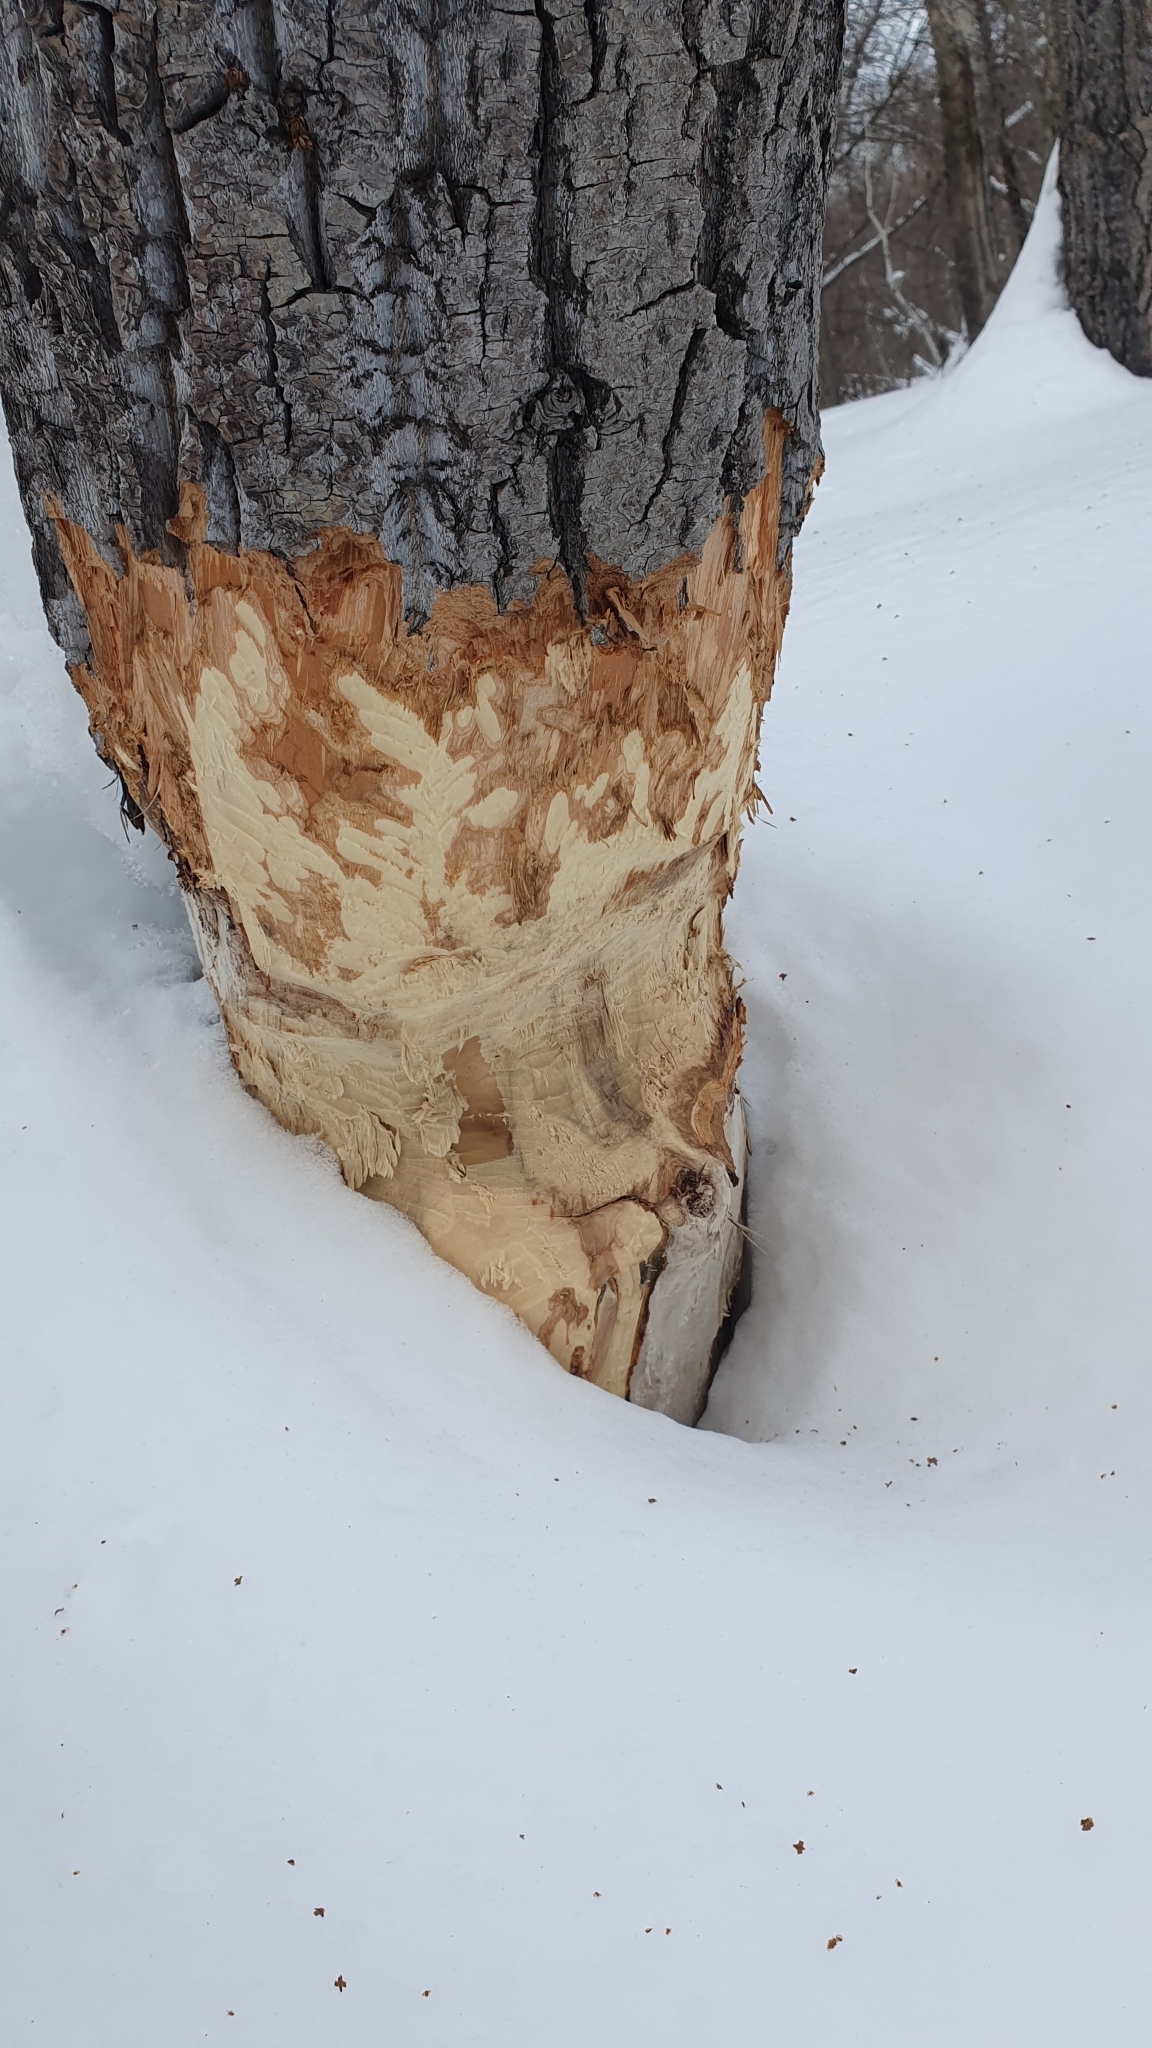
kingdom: Animalia
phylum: Chordata
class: Mammalia
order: Rodentia
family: Castoridae
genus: Castor
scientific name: Castor fiber
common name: Eurasian beaver
